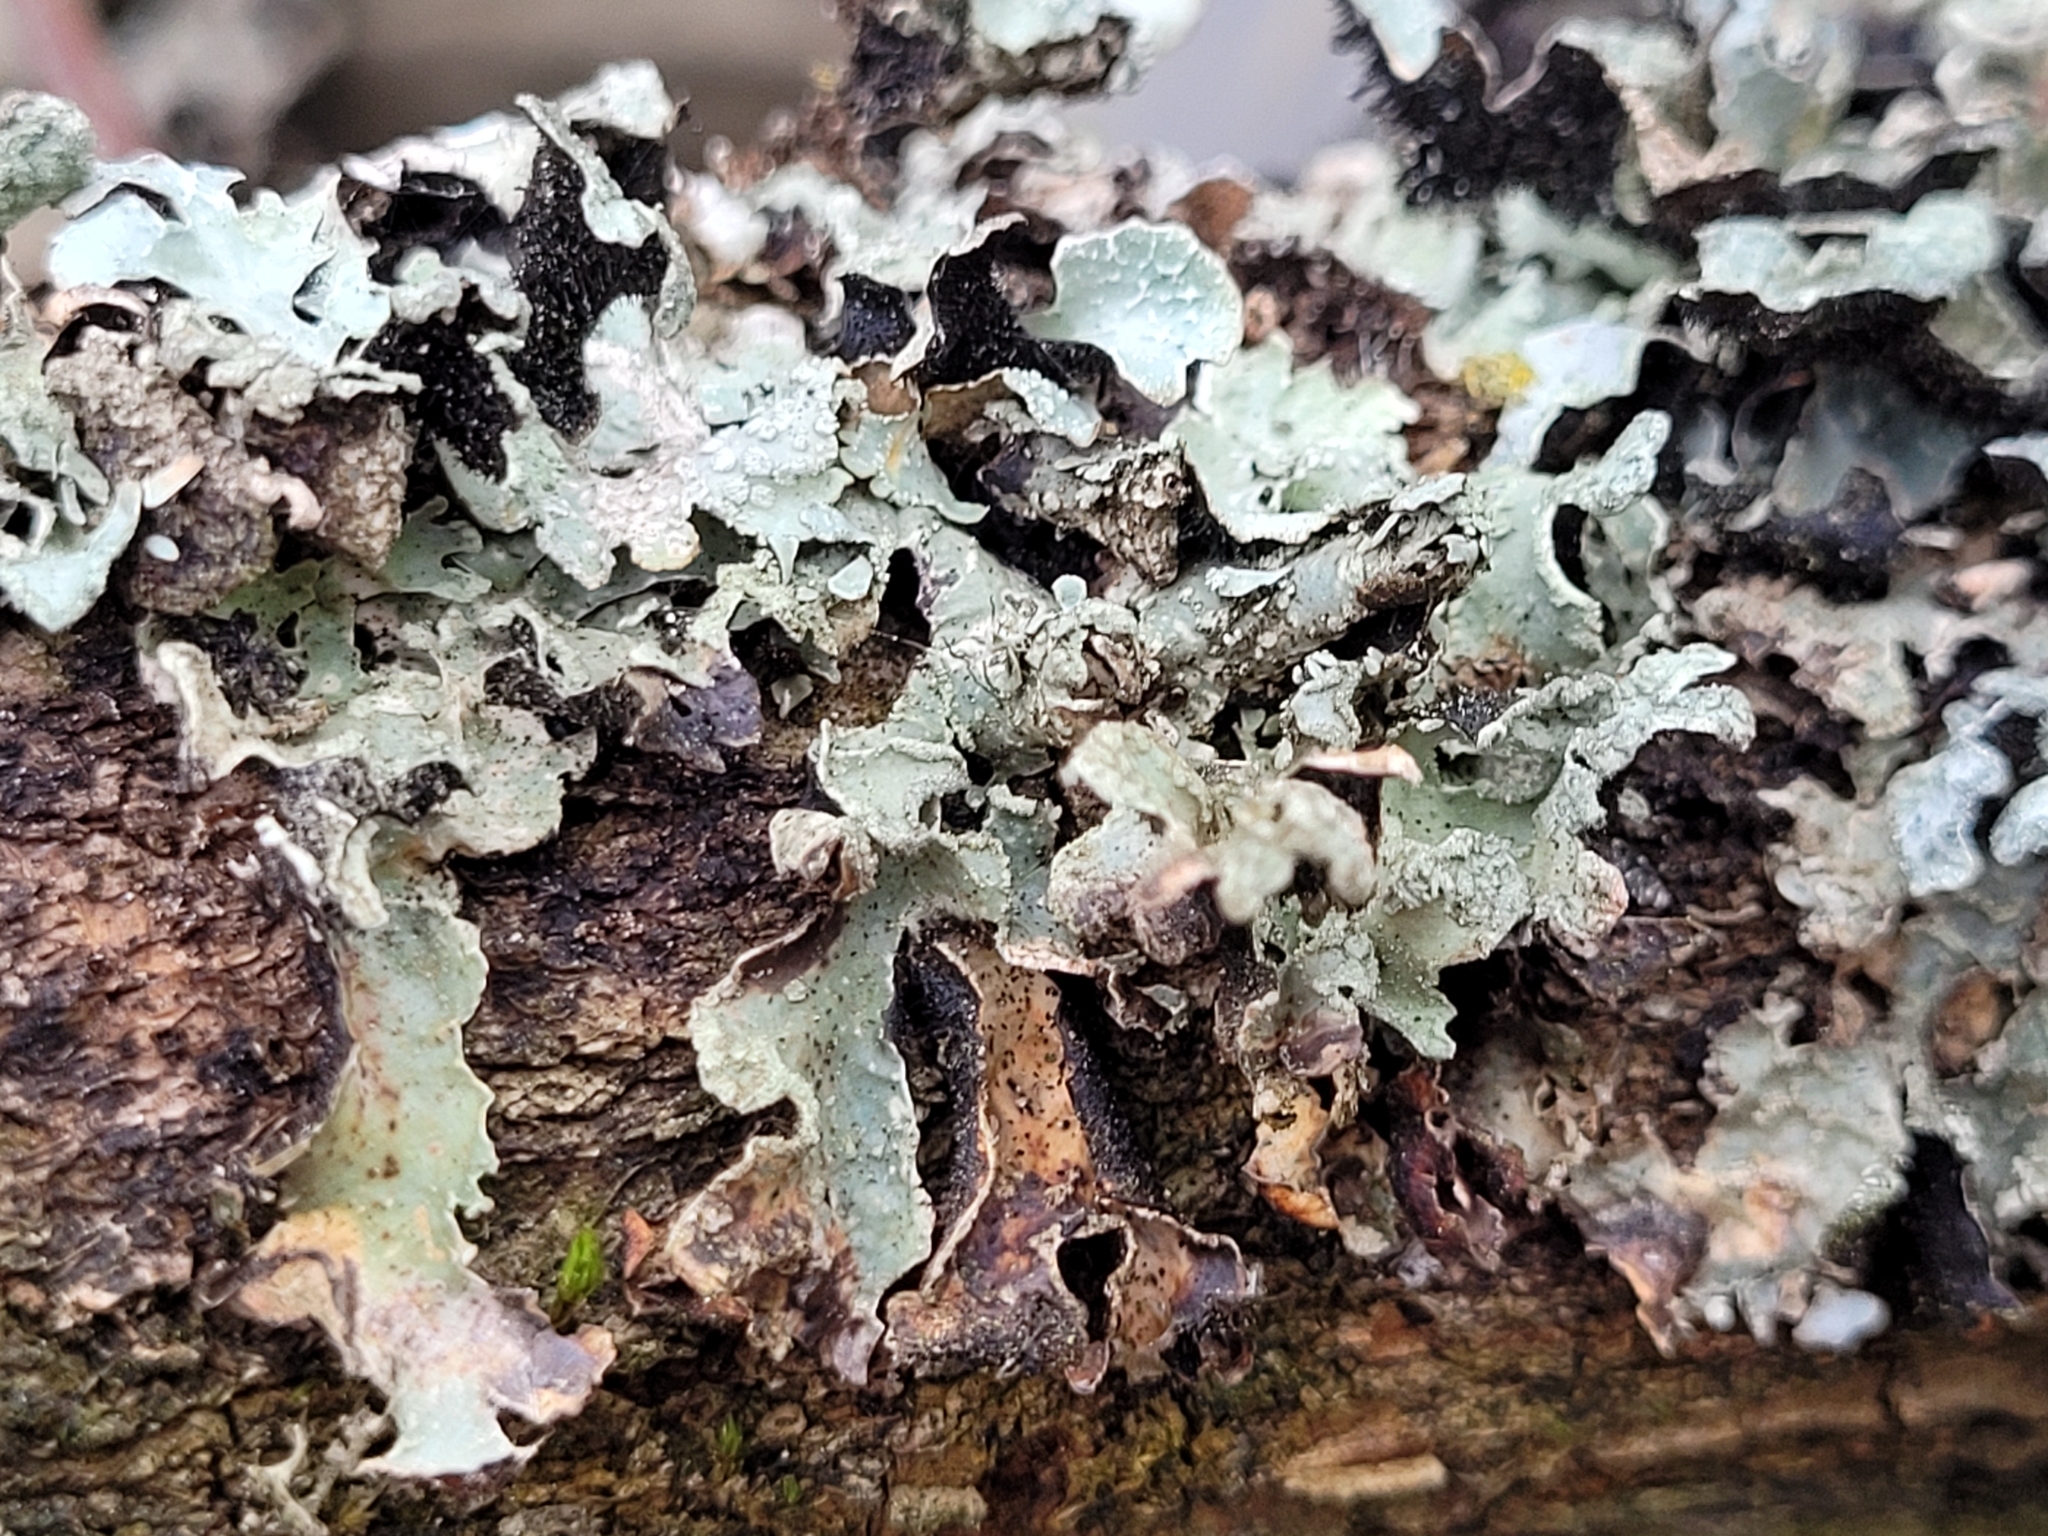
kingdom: Fungi
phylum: Ascomycota
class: Lecanoromycetes
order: Lecanorales
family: Parmeliaceae
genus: Parmelia
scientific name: Parmelia sulcata
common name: Netted shield lichen
